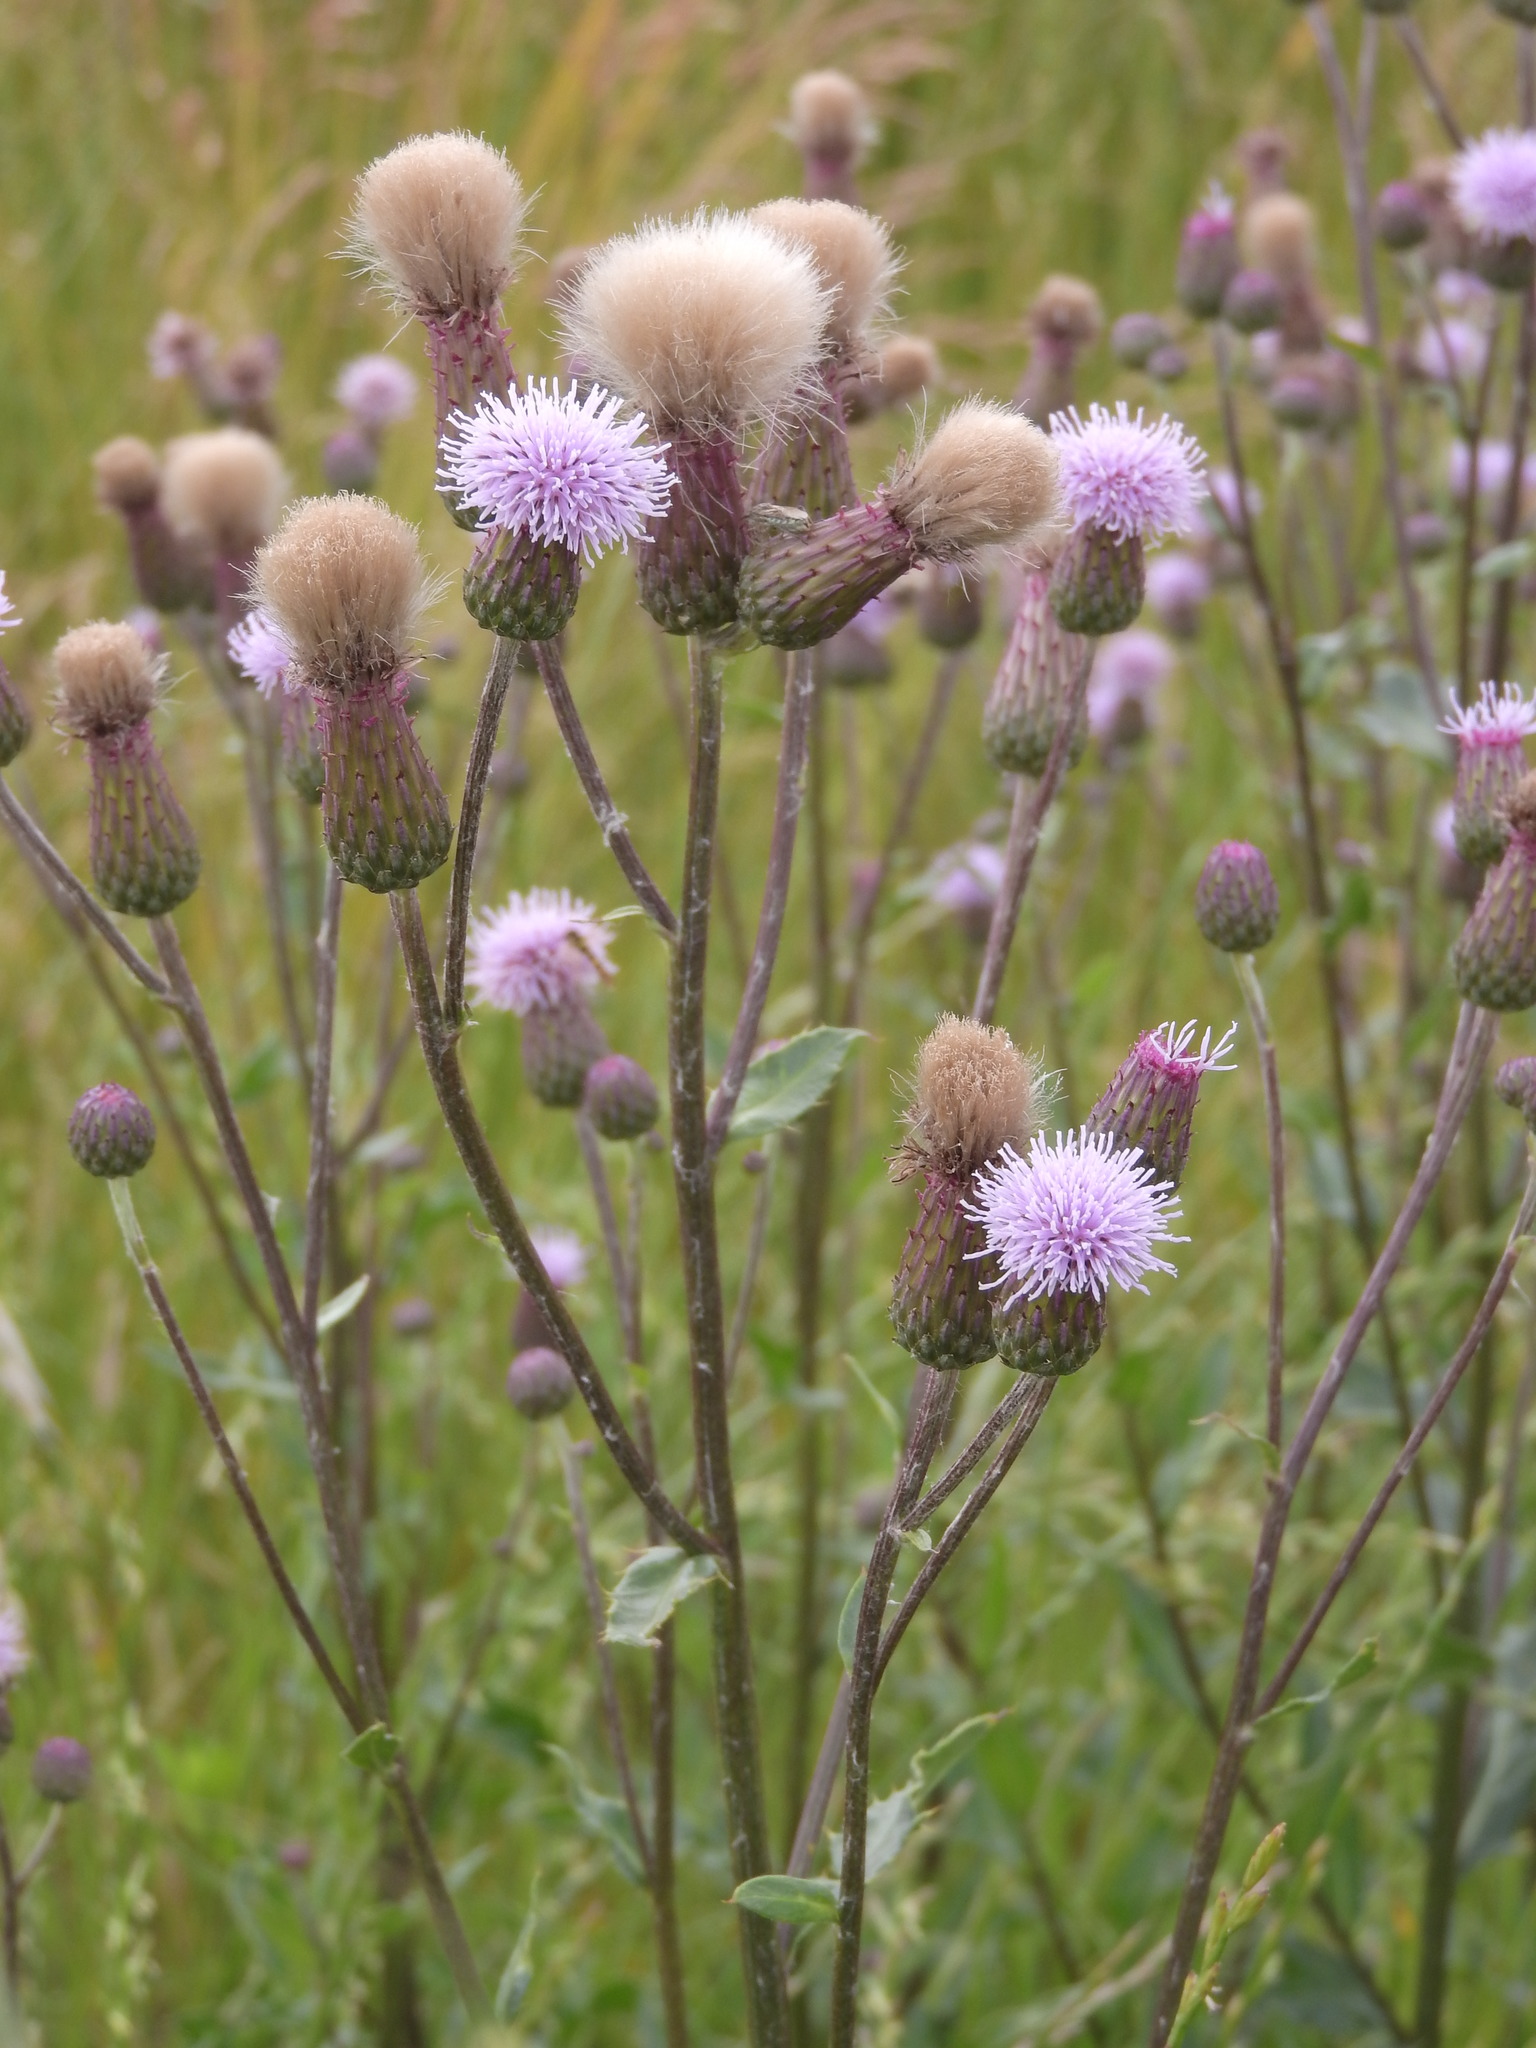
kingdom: Plantae
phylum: Tracheophyta
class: Magnoliopsida
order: Asterales
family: Asteraceae
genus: Cirsium
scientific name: Cirsium arvense
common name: Creeping thistle
